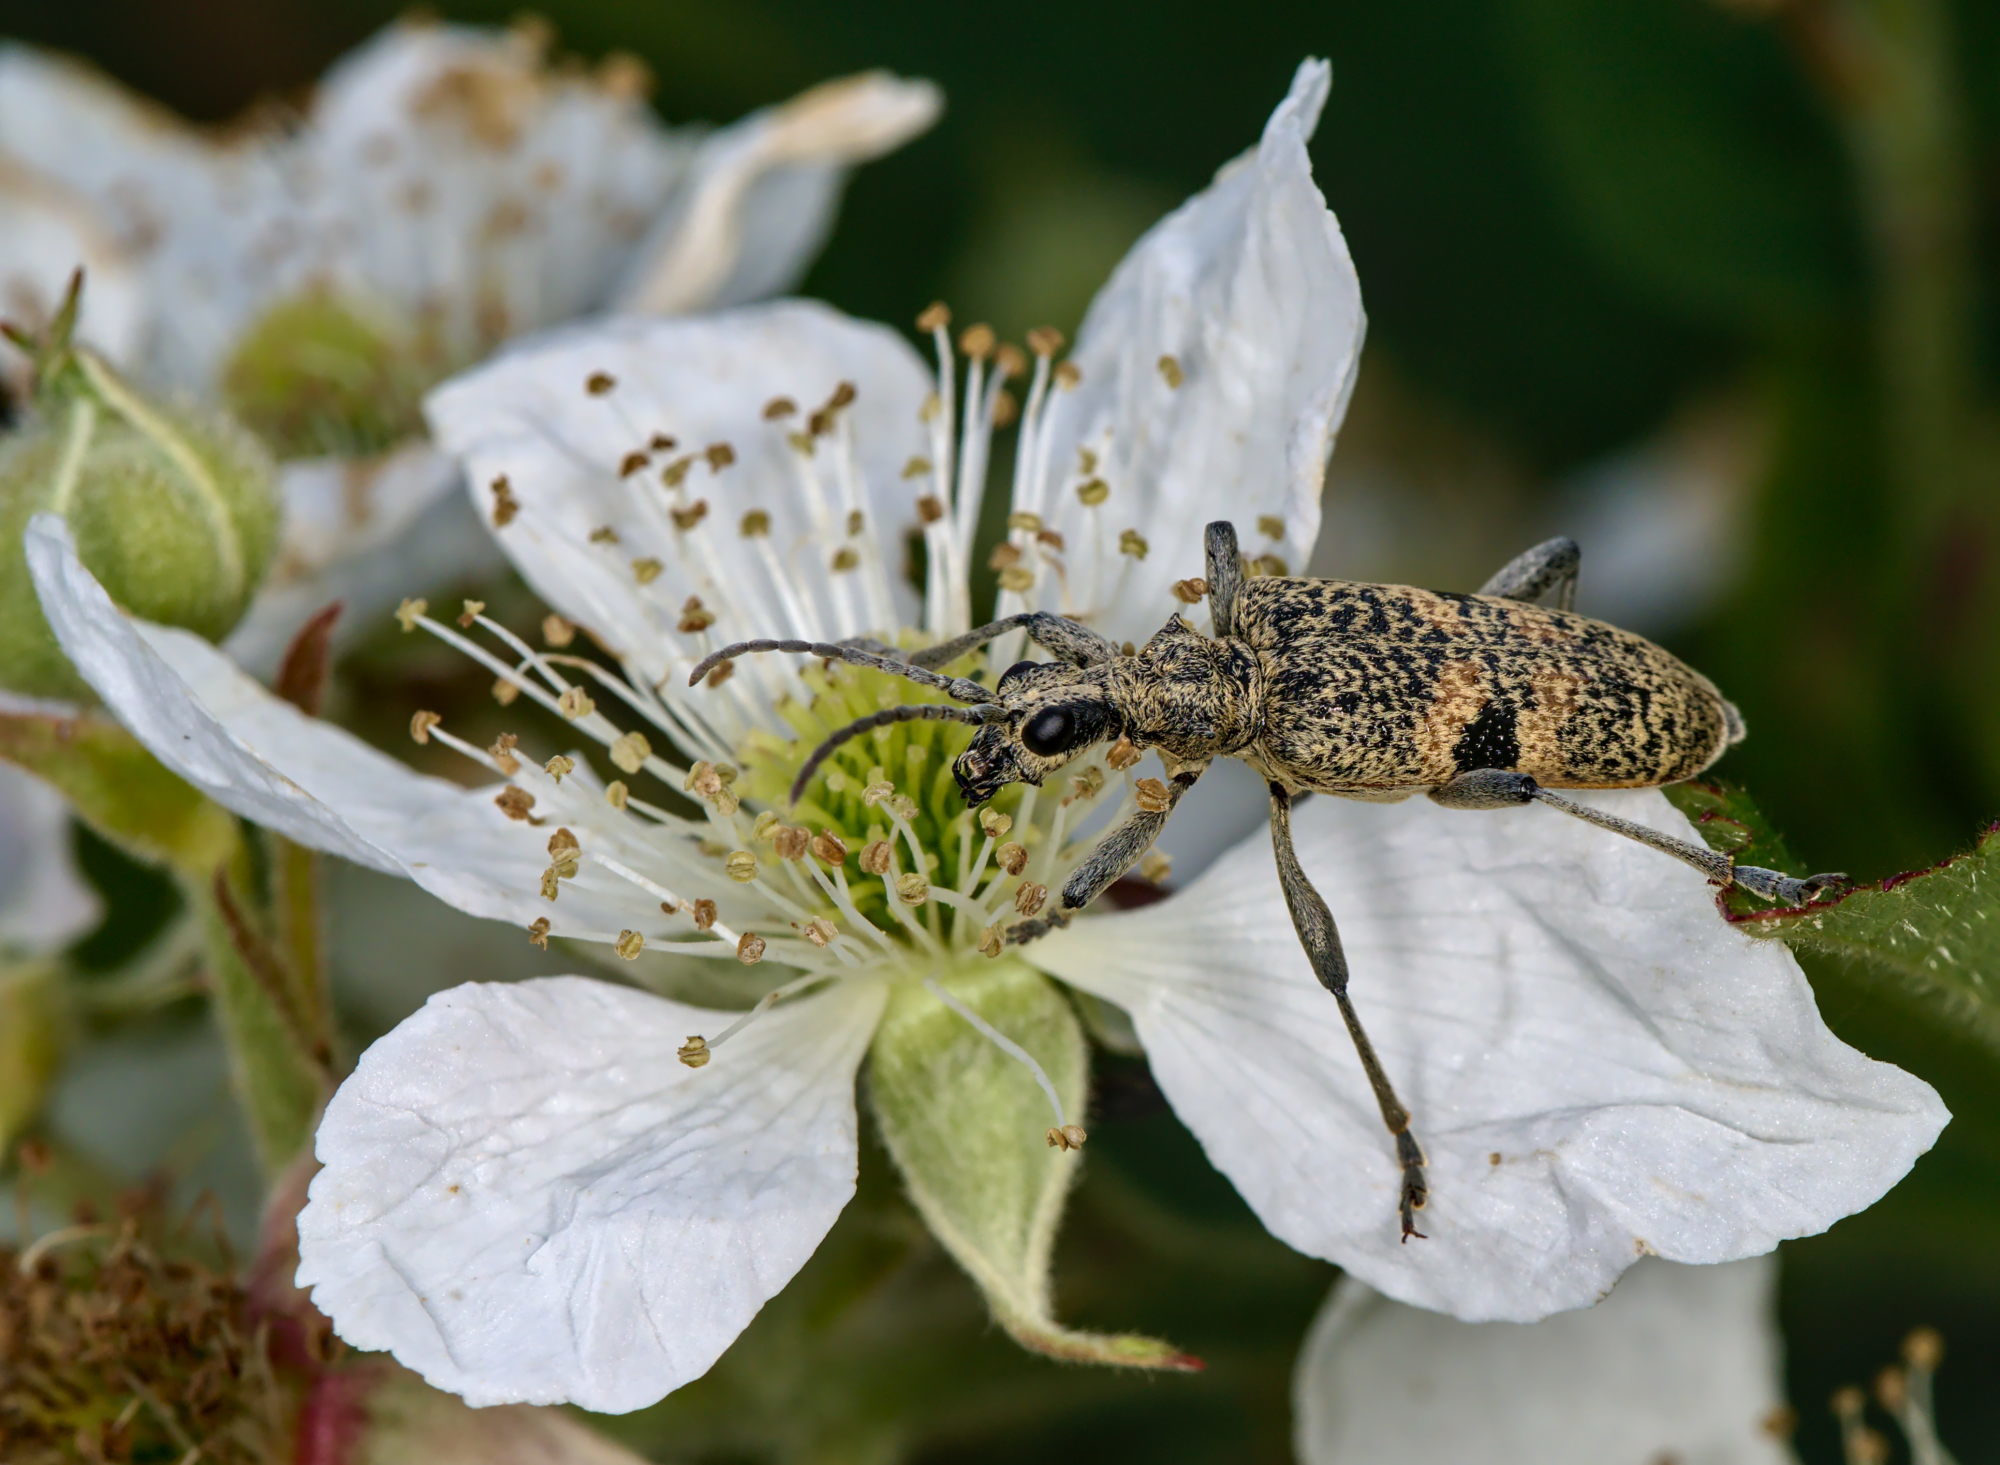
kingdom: Animalia
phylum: Arthropoda
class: Insecta
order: Coleoptera
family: Cerambycidae
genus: Rhagium
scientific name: Rhagium mordax
